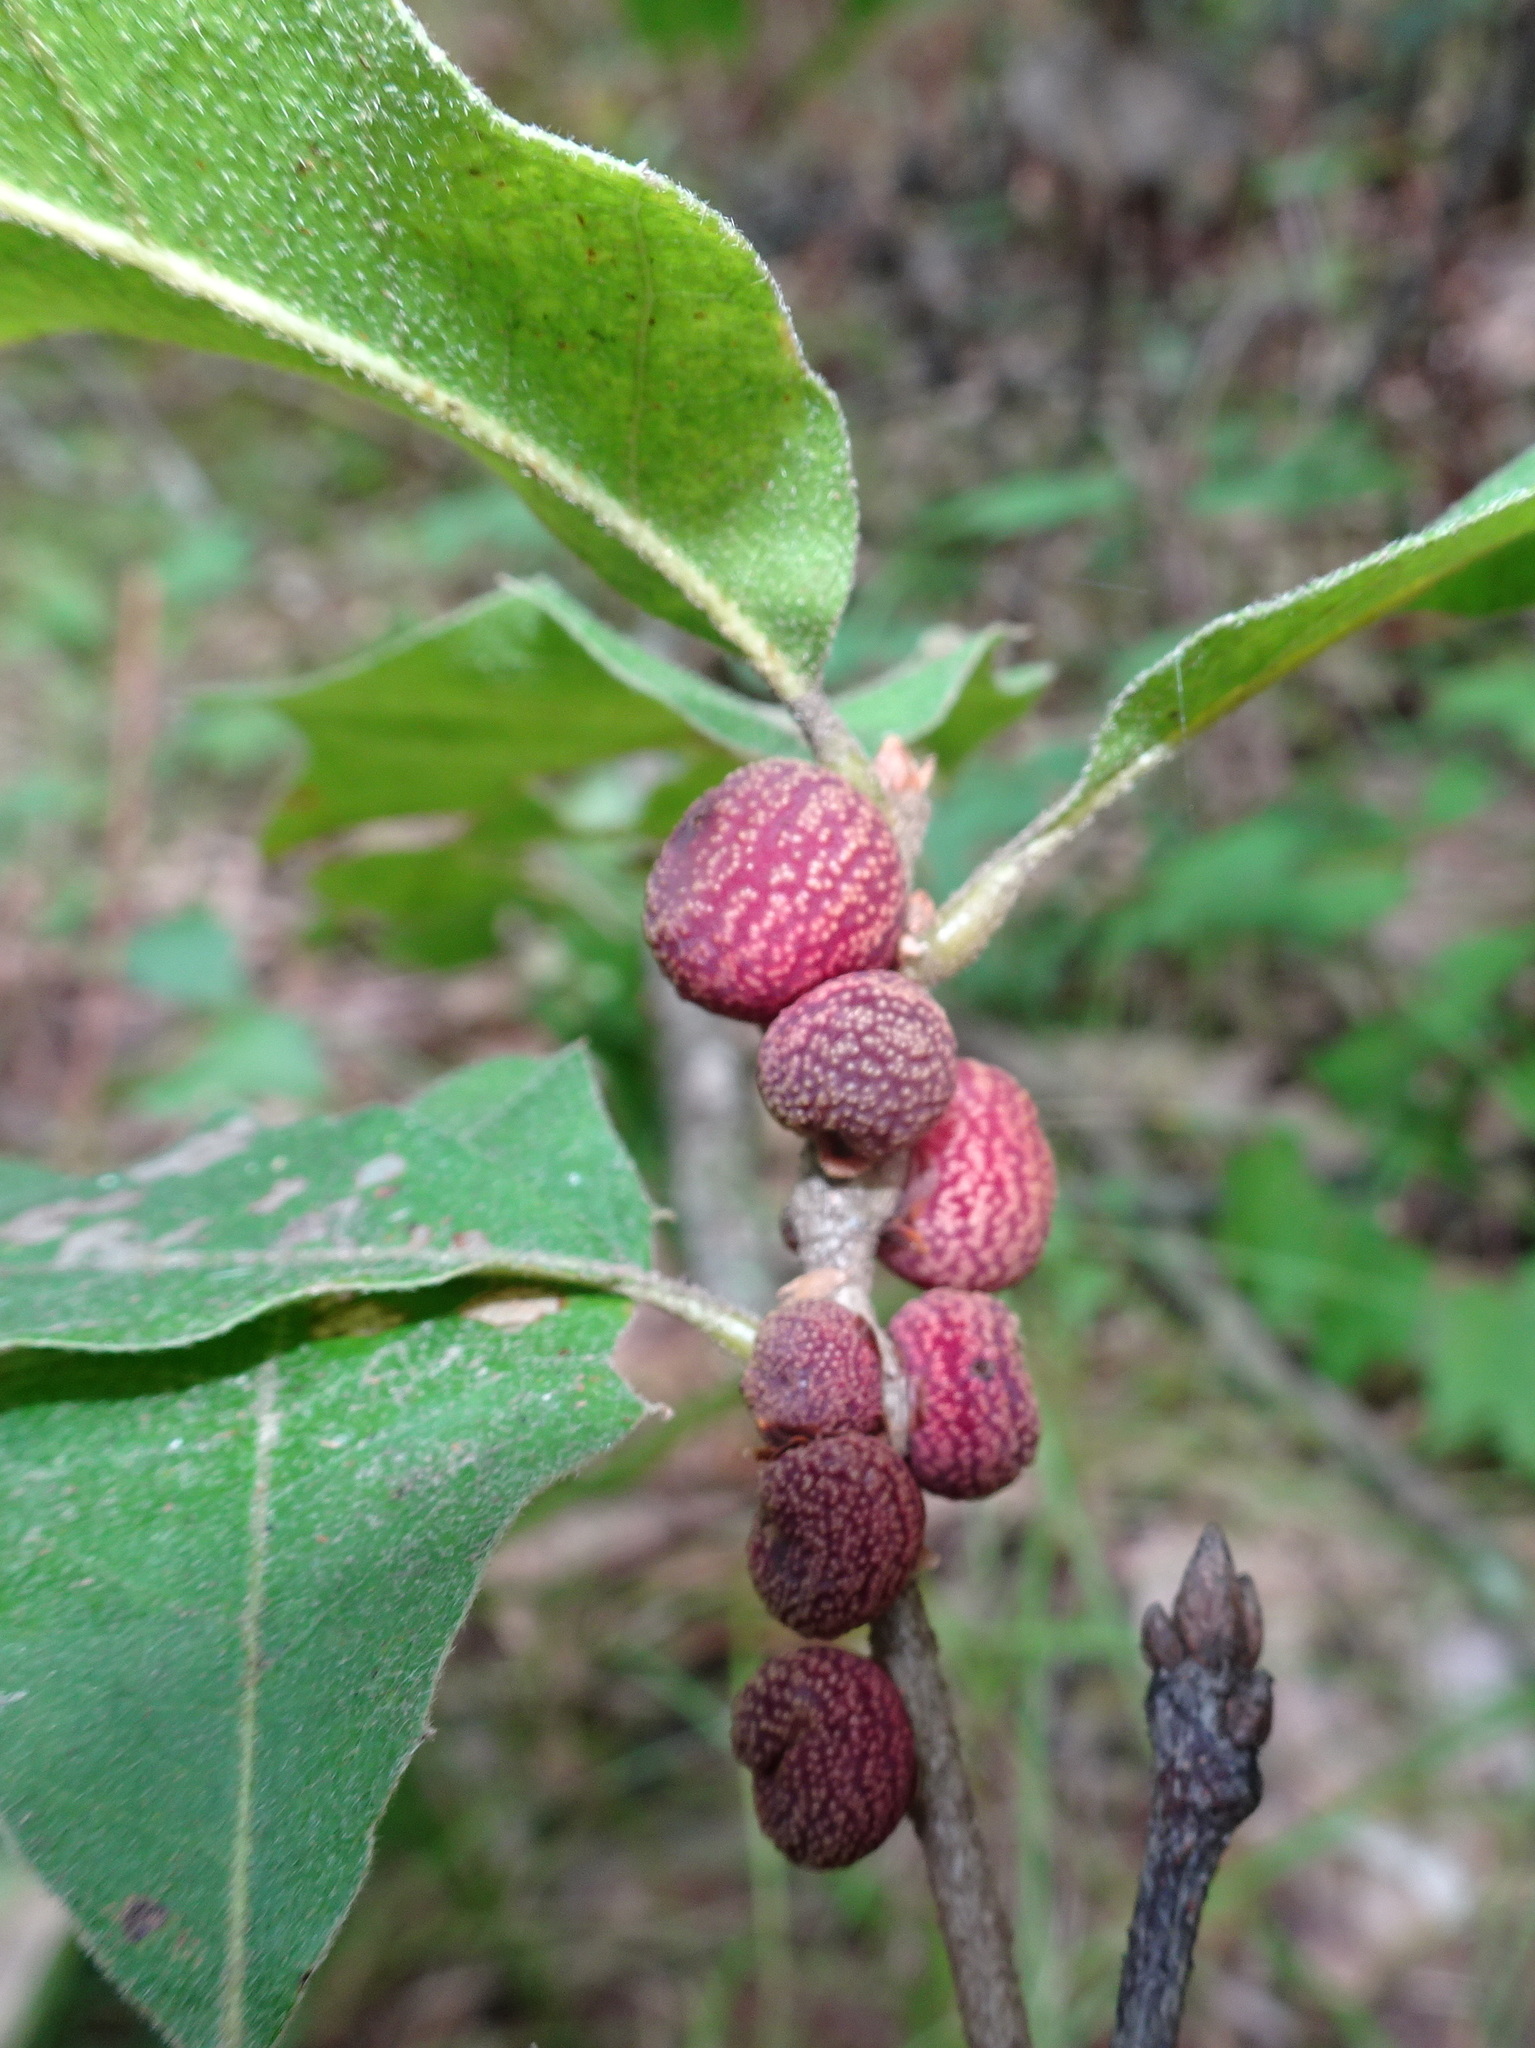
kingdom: Animalia
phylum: Arthropoda
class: Insecta
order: Hymenoptera
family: Cynipidae
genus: Kokkocynips
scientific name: Kokkocynips imbricariae
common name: Banded bullet gall wasp
